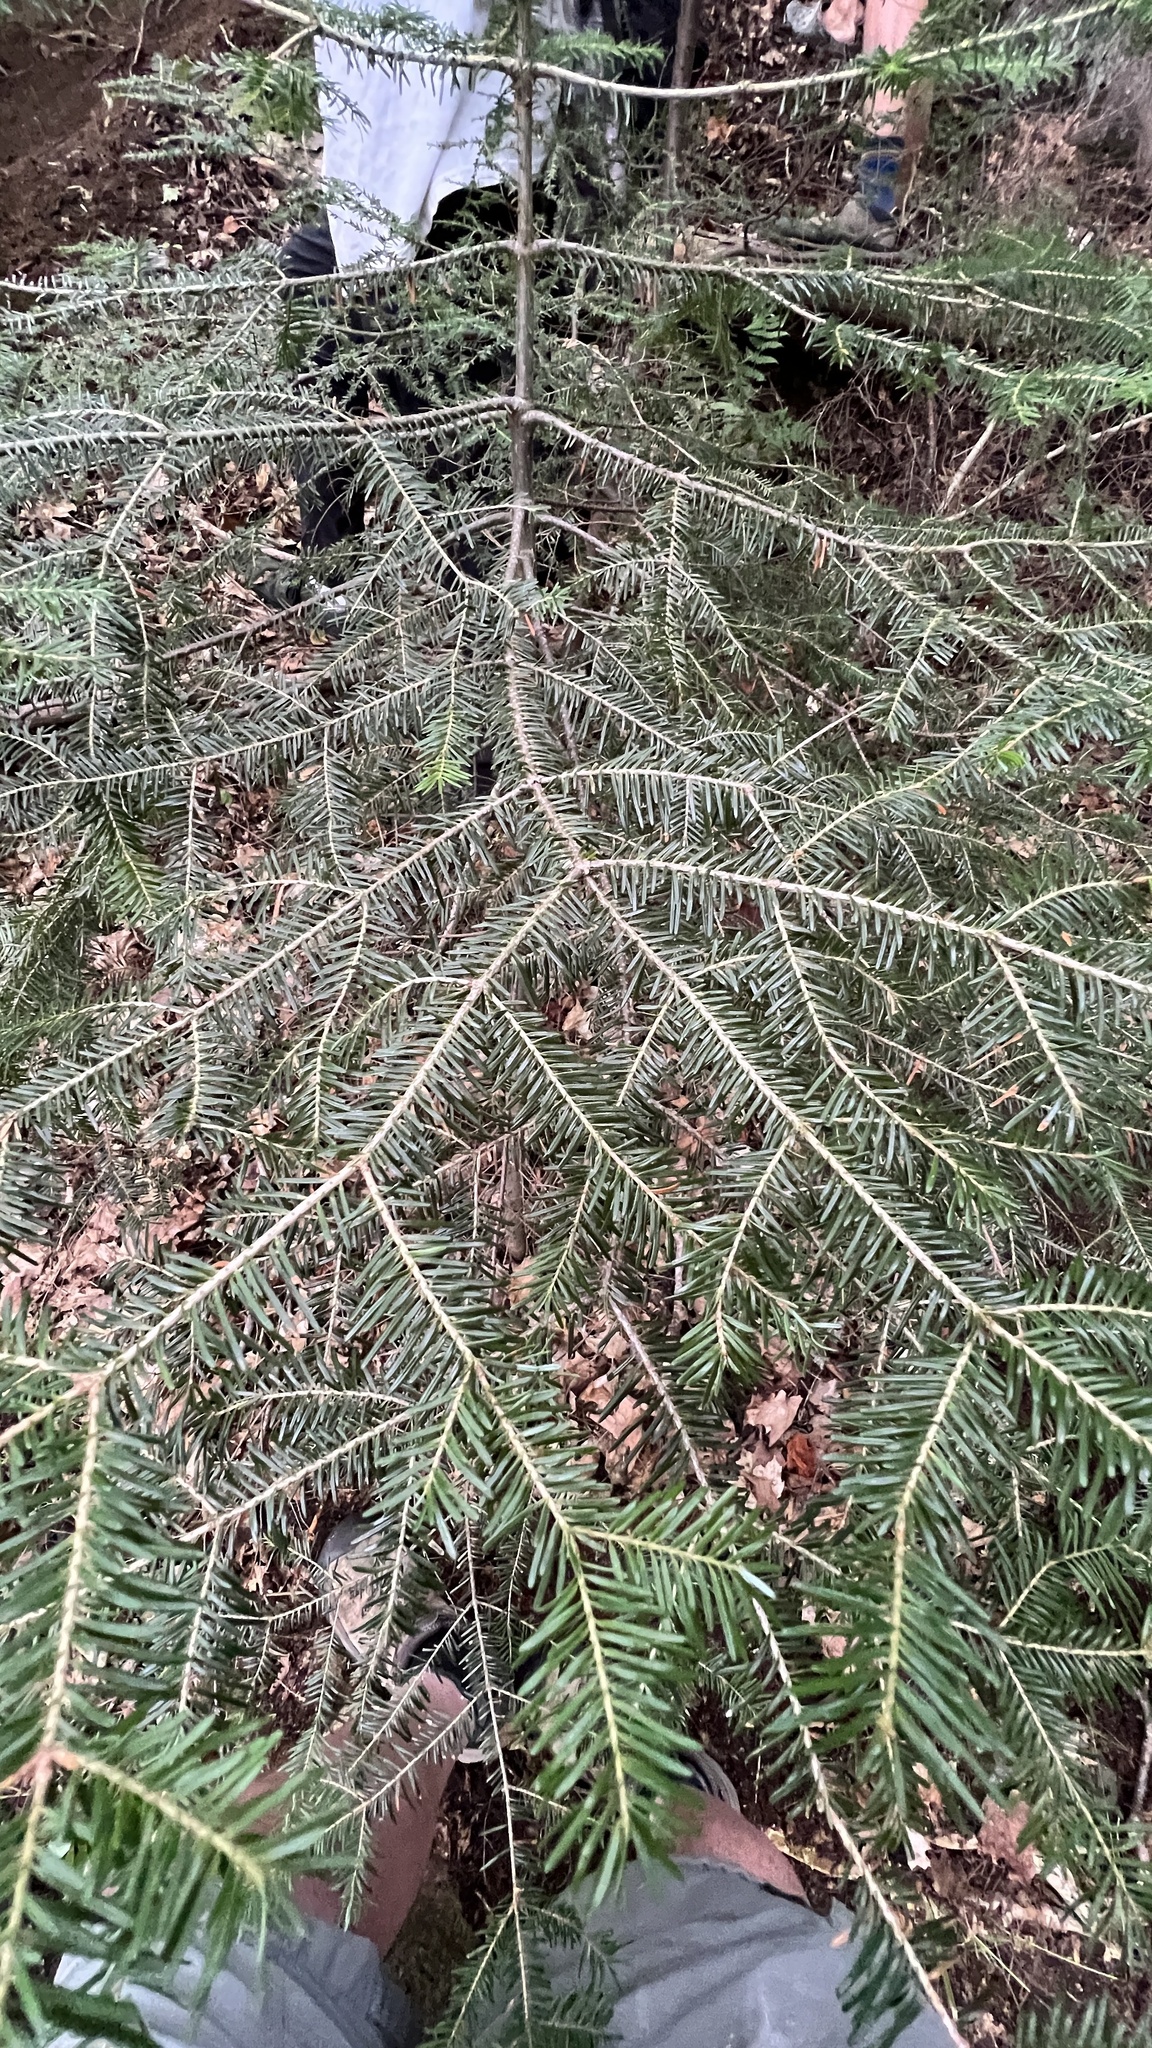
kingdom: Plantae
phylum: Tracheophyta
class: Pinopsida
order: Pinales
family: Pinaceae
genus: Abies
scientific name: Abies balsamea
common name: Balsam fir
